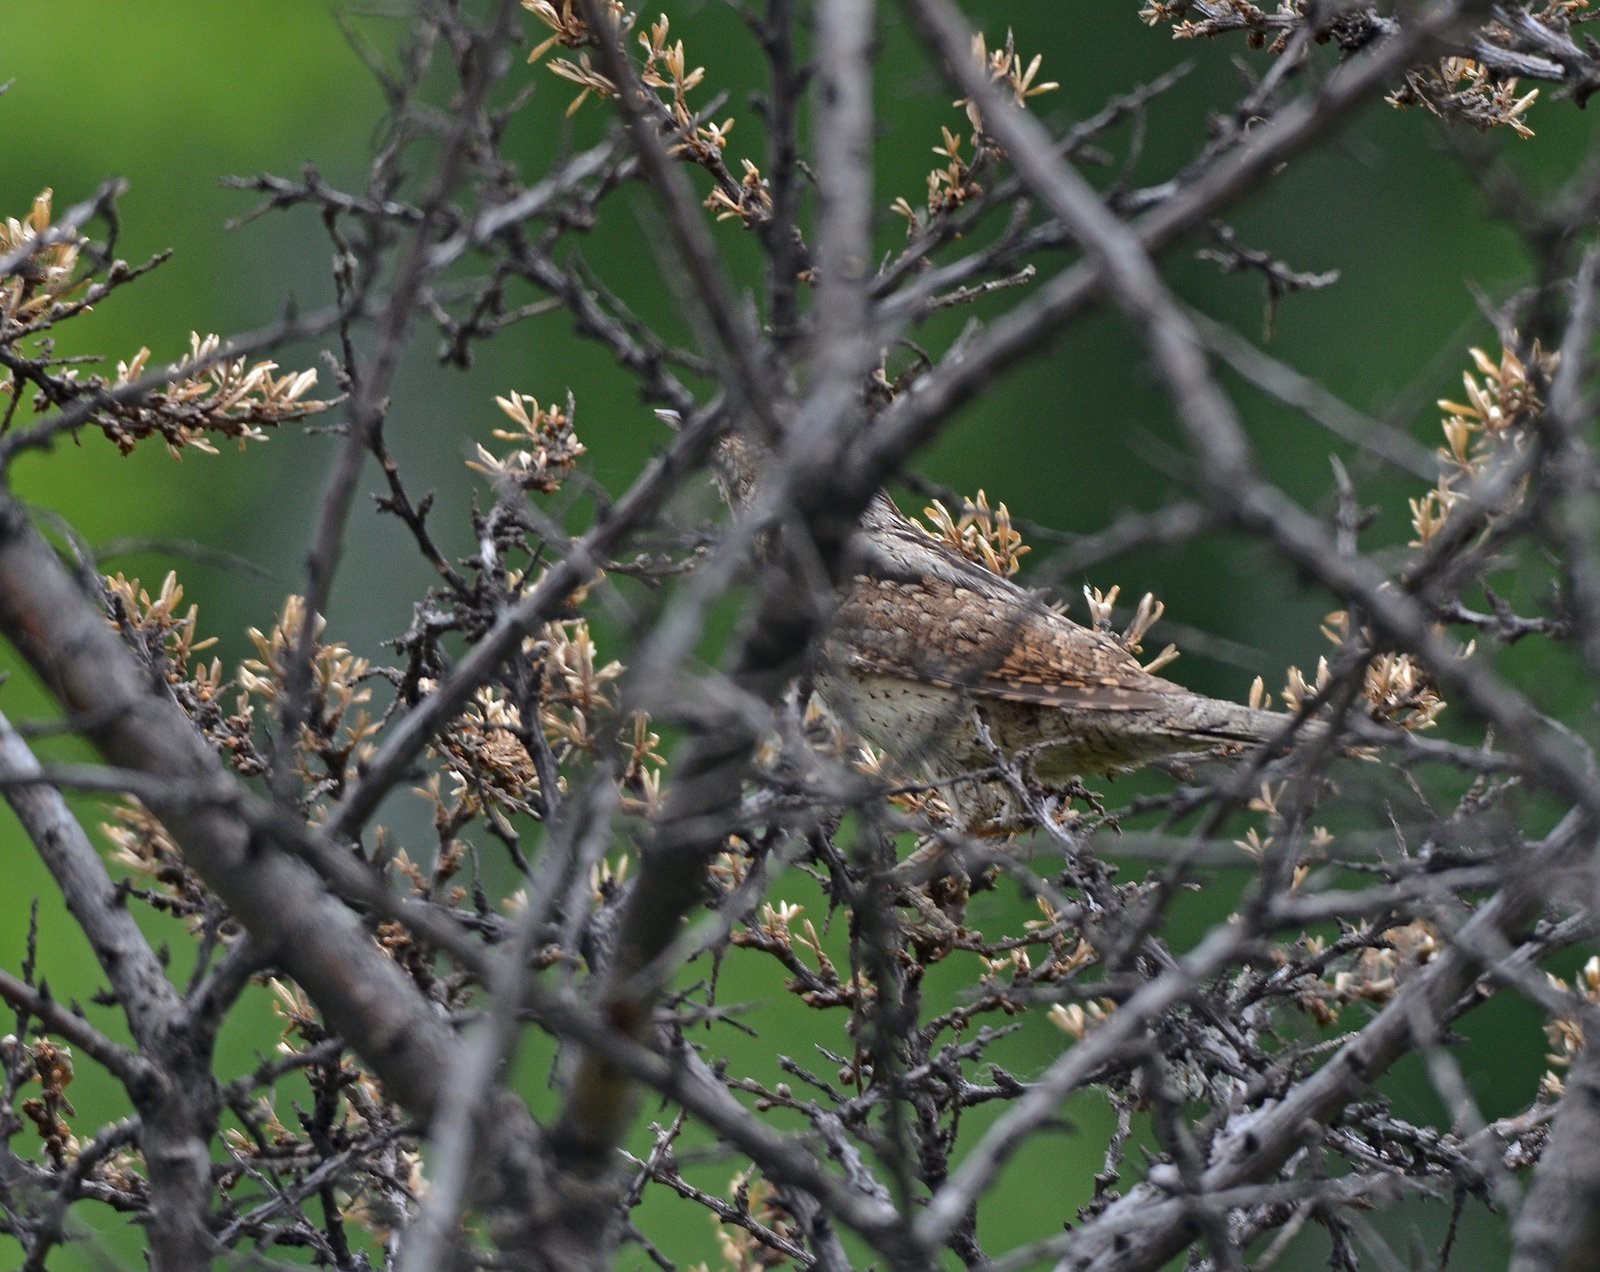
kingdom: Animalia
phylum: Chordata
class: Aves
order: Piciformes
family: Picidae
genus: Jynx
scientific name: Jynx torquilla
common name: Eurasian wryneck
